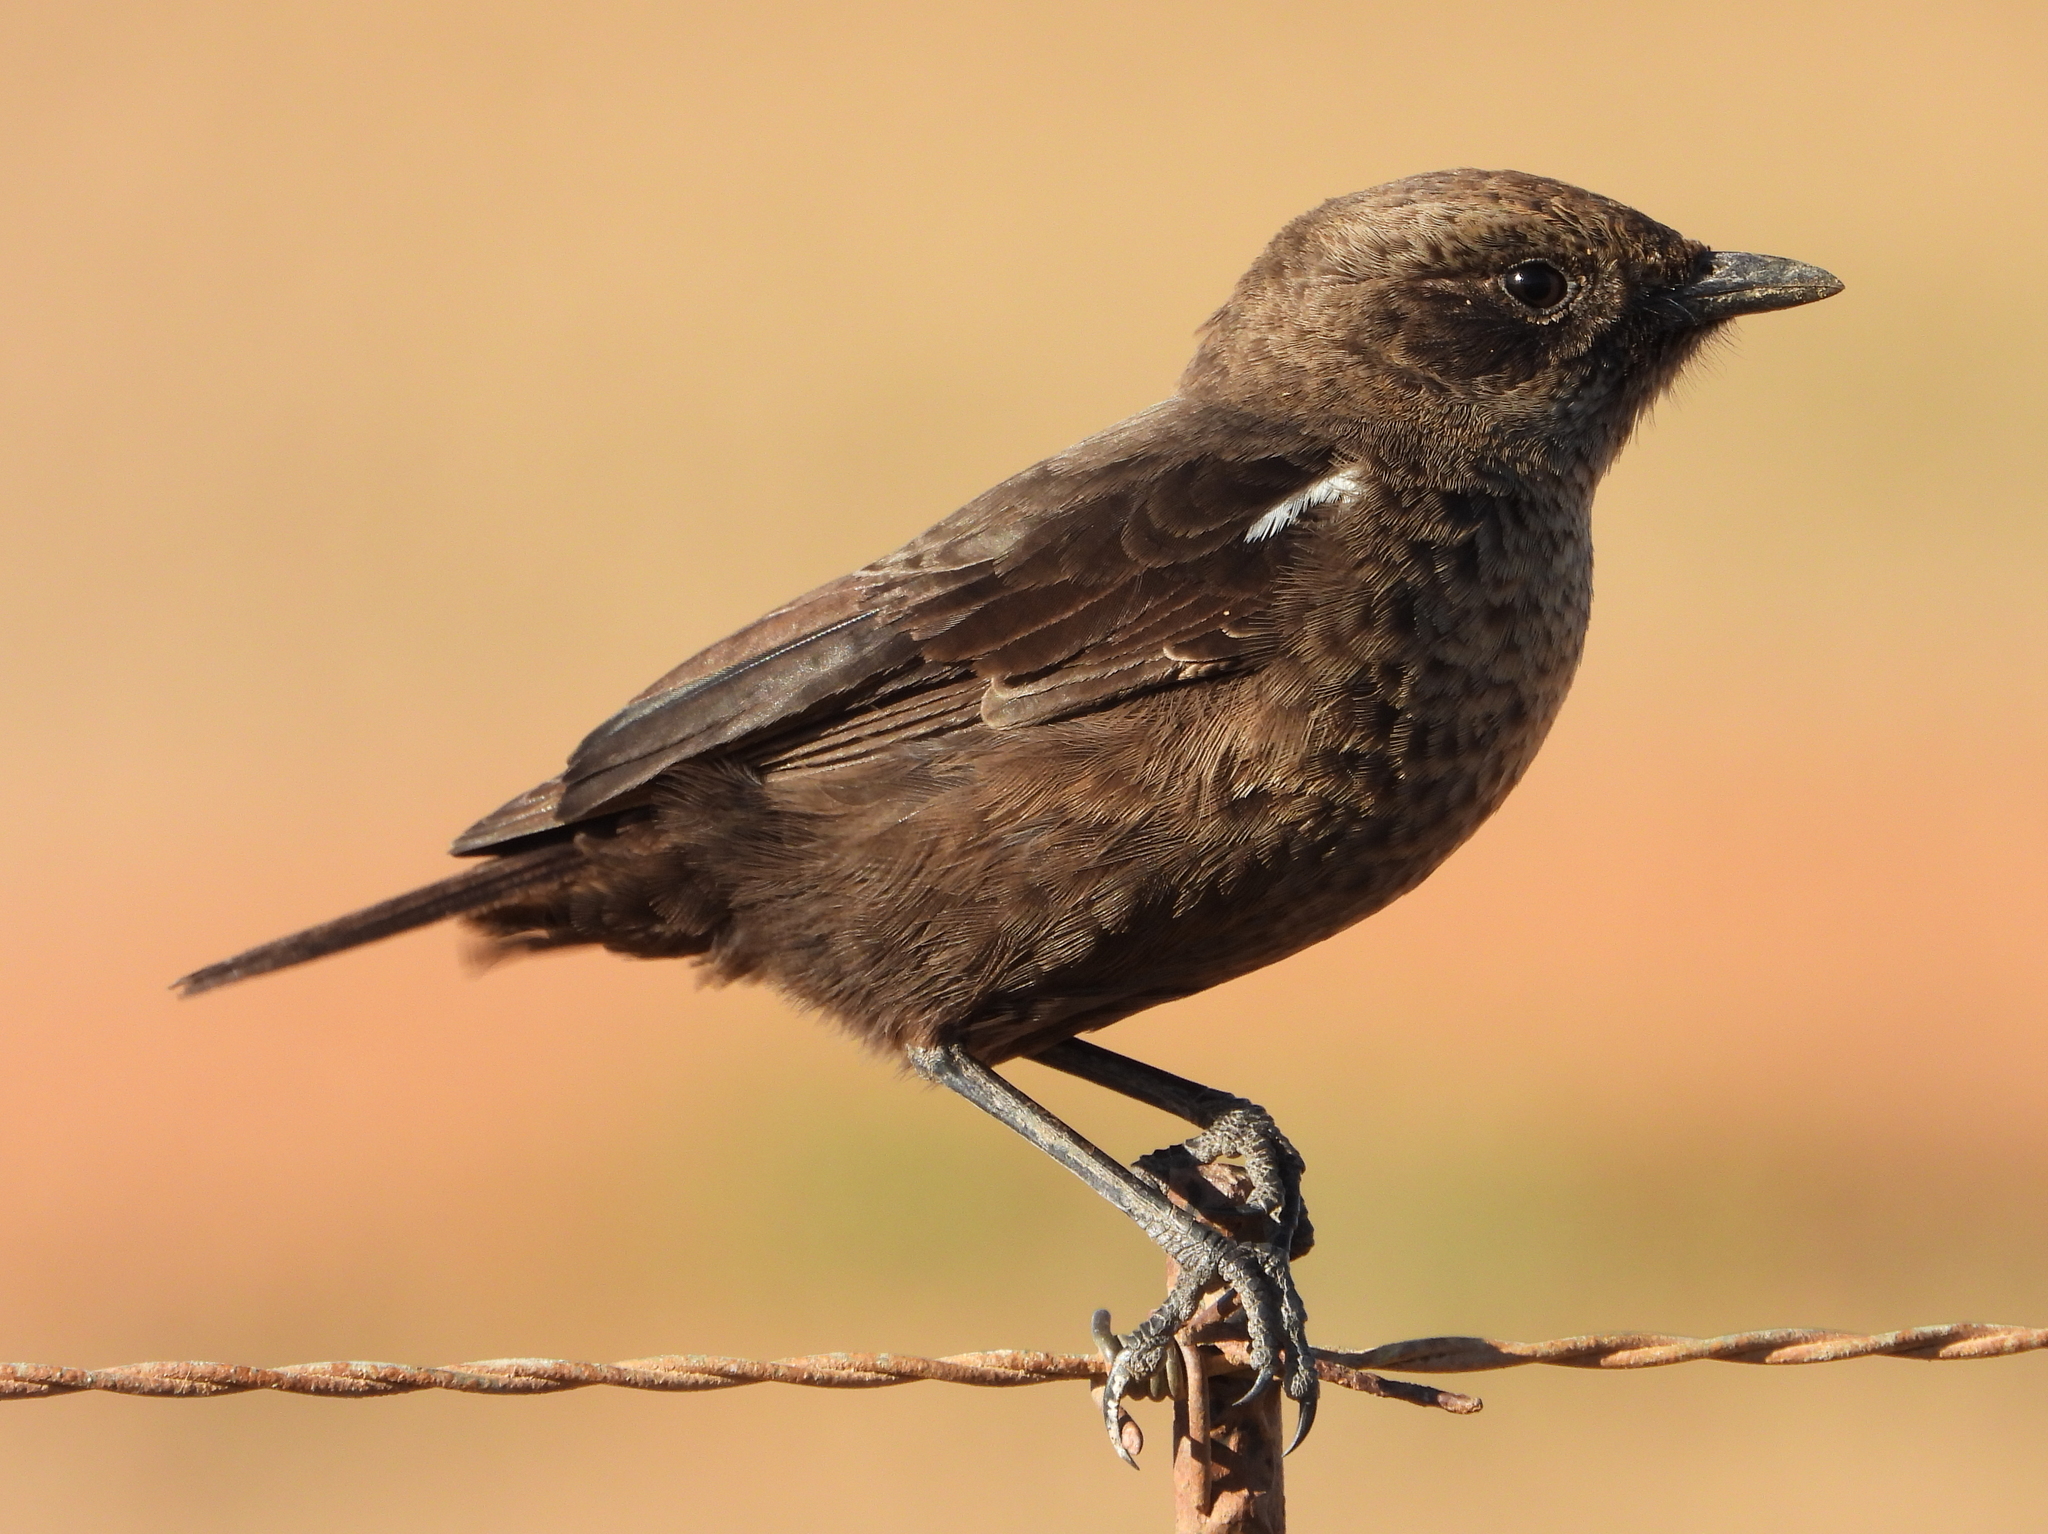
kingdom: Animalia
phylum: Chordata
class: Aves
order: Passeriformes
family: Muscicapidae
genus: Myrmecocichla
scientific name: Myrmecocichla formicivora
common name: Ant-eating chat
